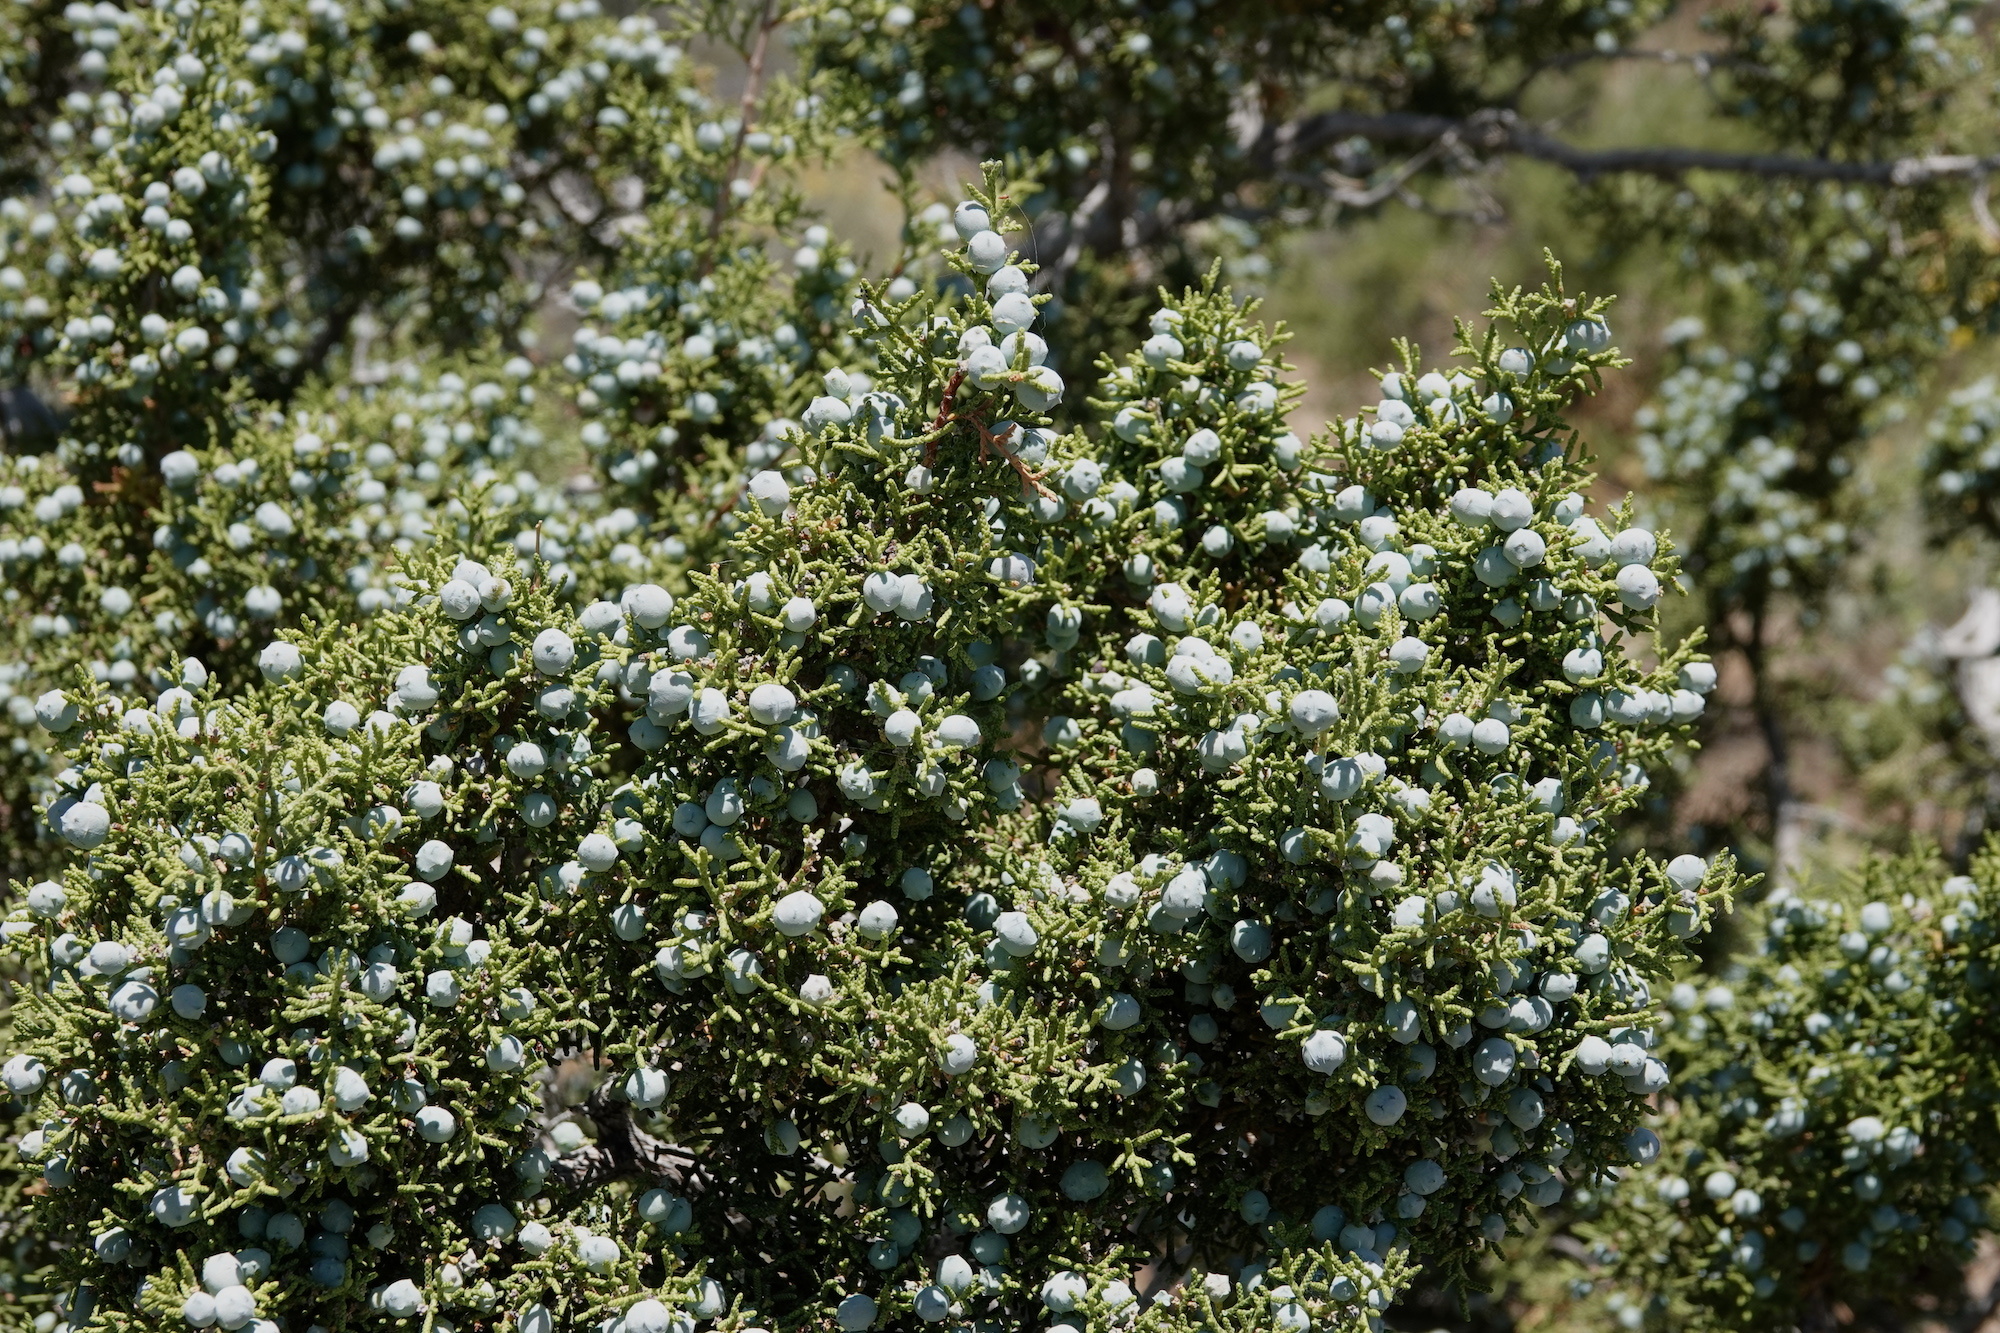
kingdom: Plantae
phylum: Tracheophyta
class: Pinopsida
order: Pinales
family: Cupressaceae
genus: Juniperus
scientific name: Juniperus californica
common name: California juniper
